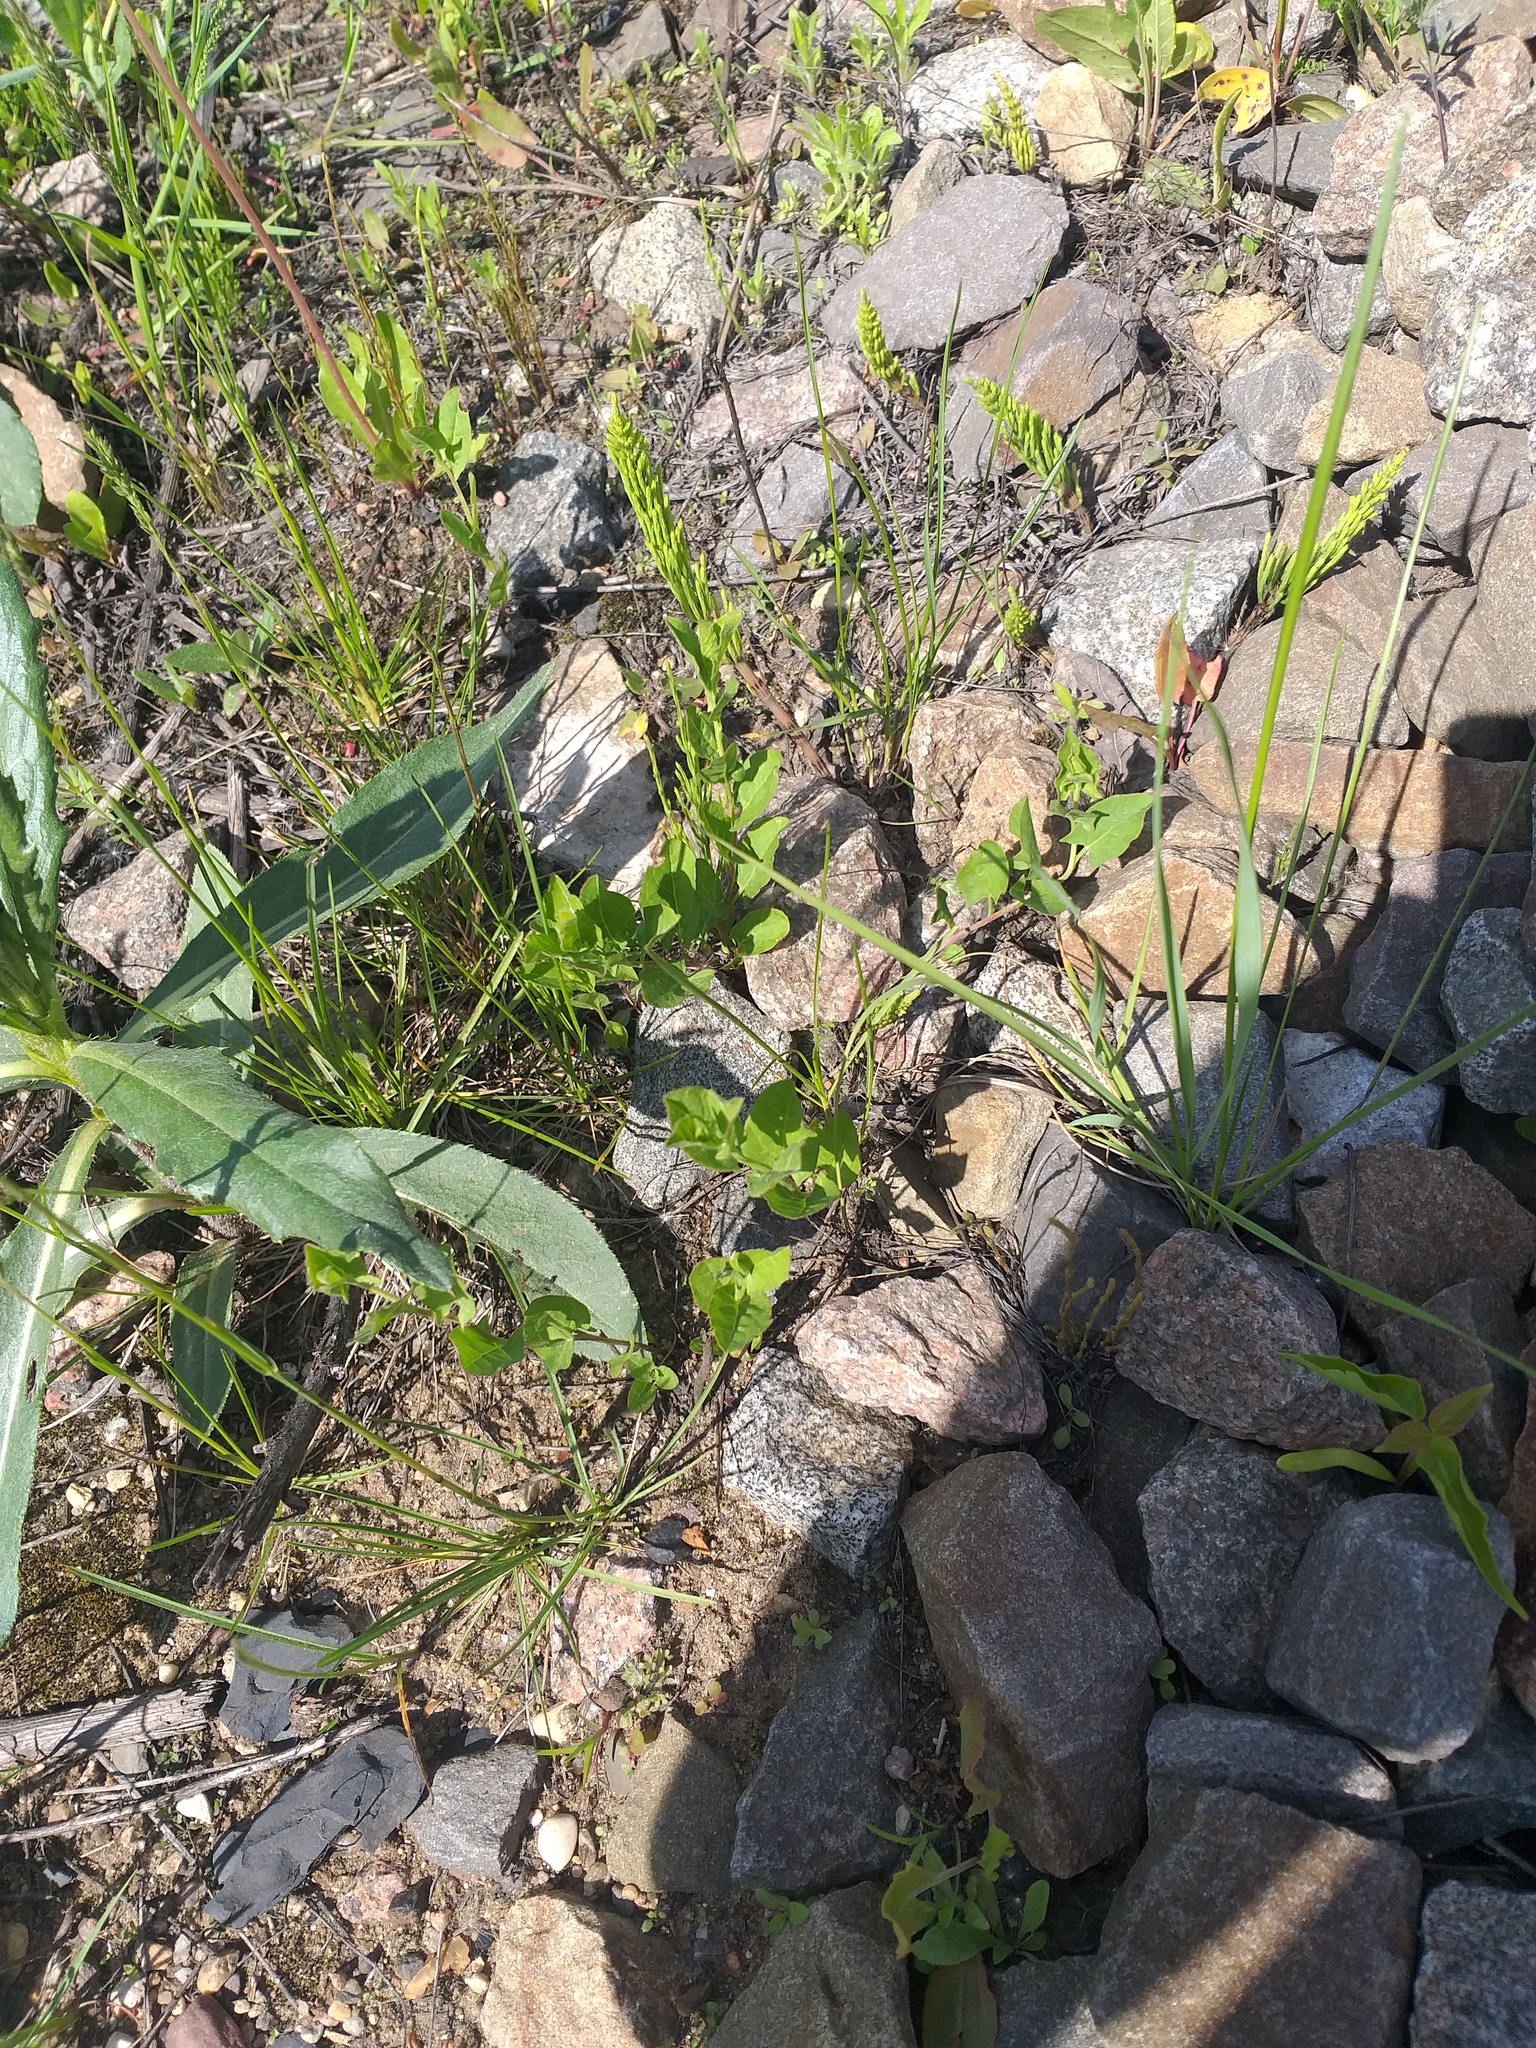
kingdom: Plantae
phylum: Tracheophyta
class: Magnoliopsida
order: Solanales
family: Convolvulaceae
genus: Convolvulus
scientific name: Convolvulus arvensis
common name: Field bindweed
